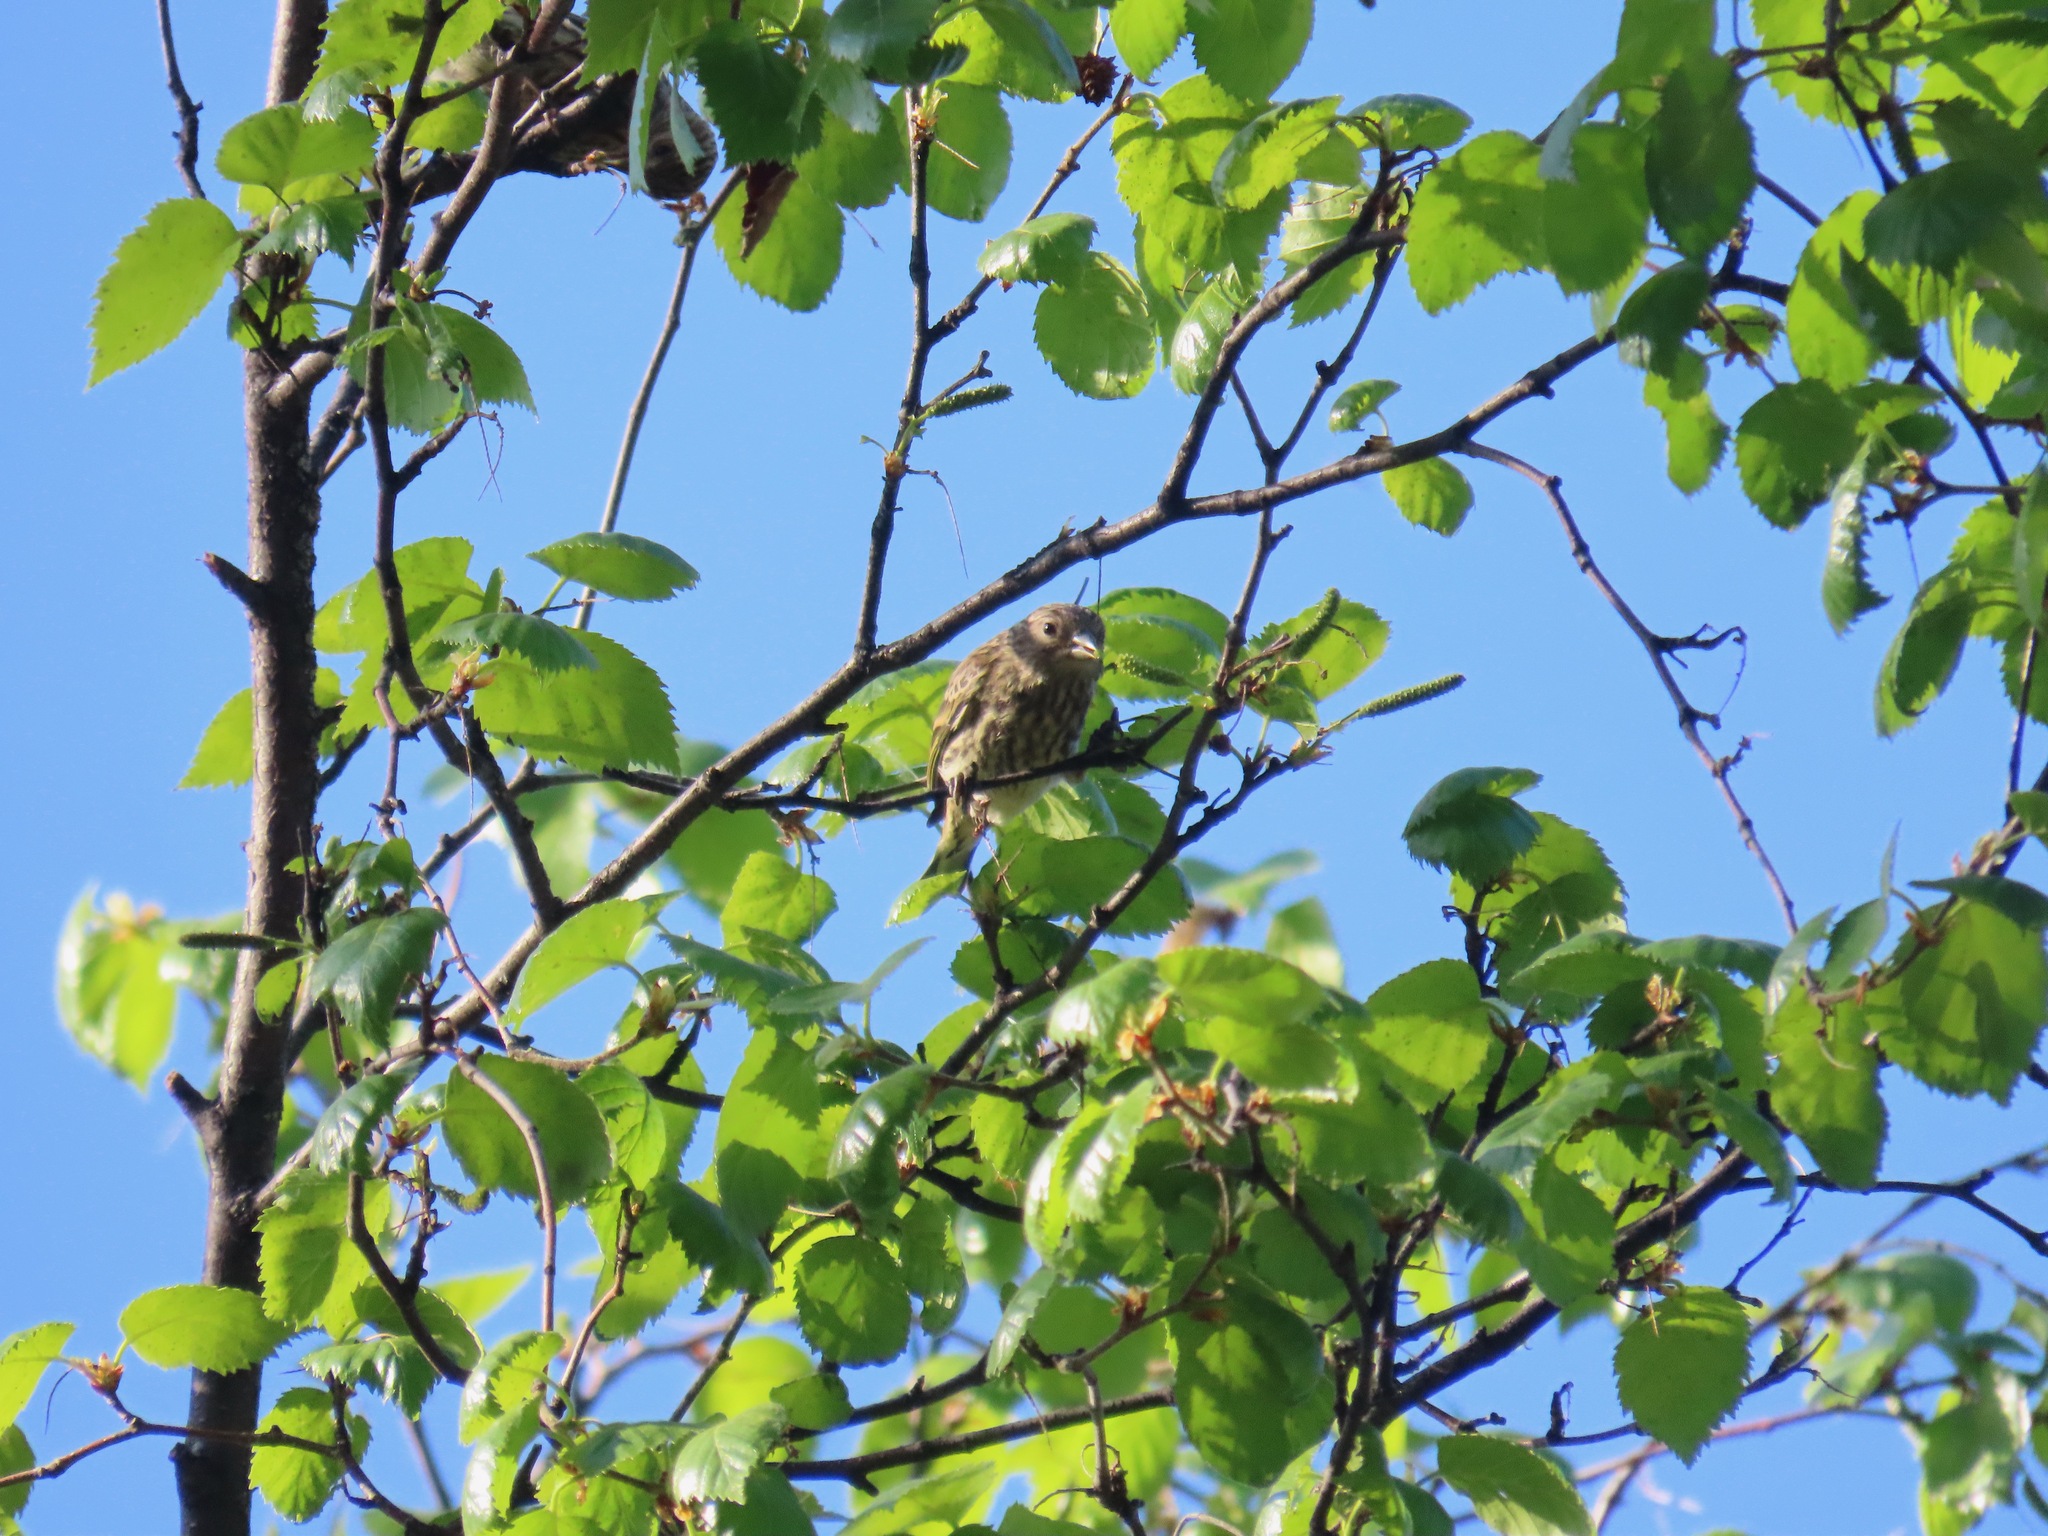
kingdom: Animalia
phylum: Chordata
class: Aves
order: Passeriformes
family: Fringillidae
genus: Spinus
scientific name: Spinus pinus
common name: Pine siskin
